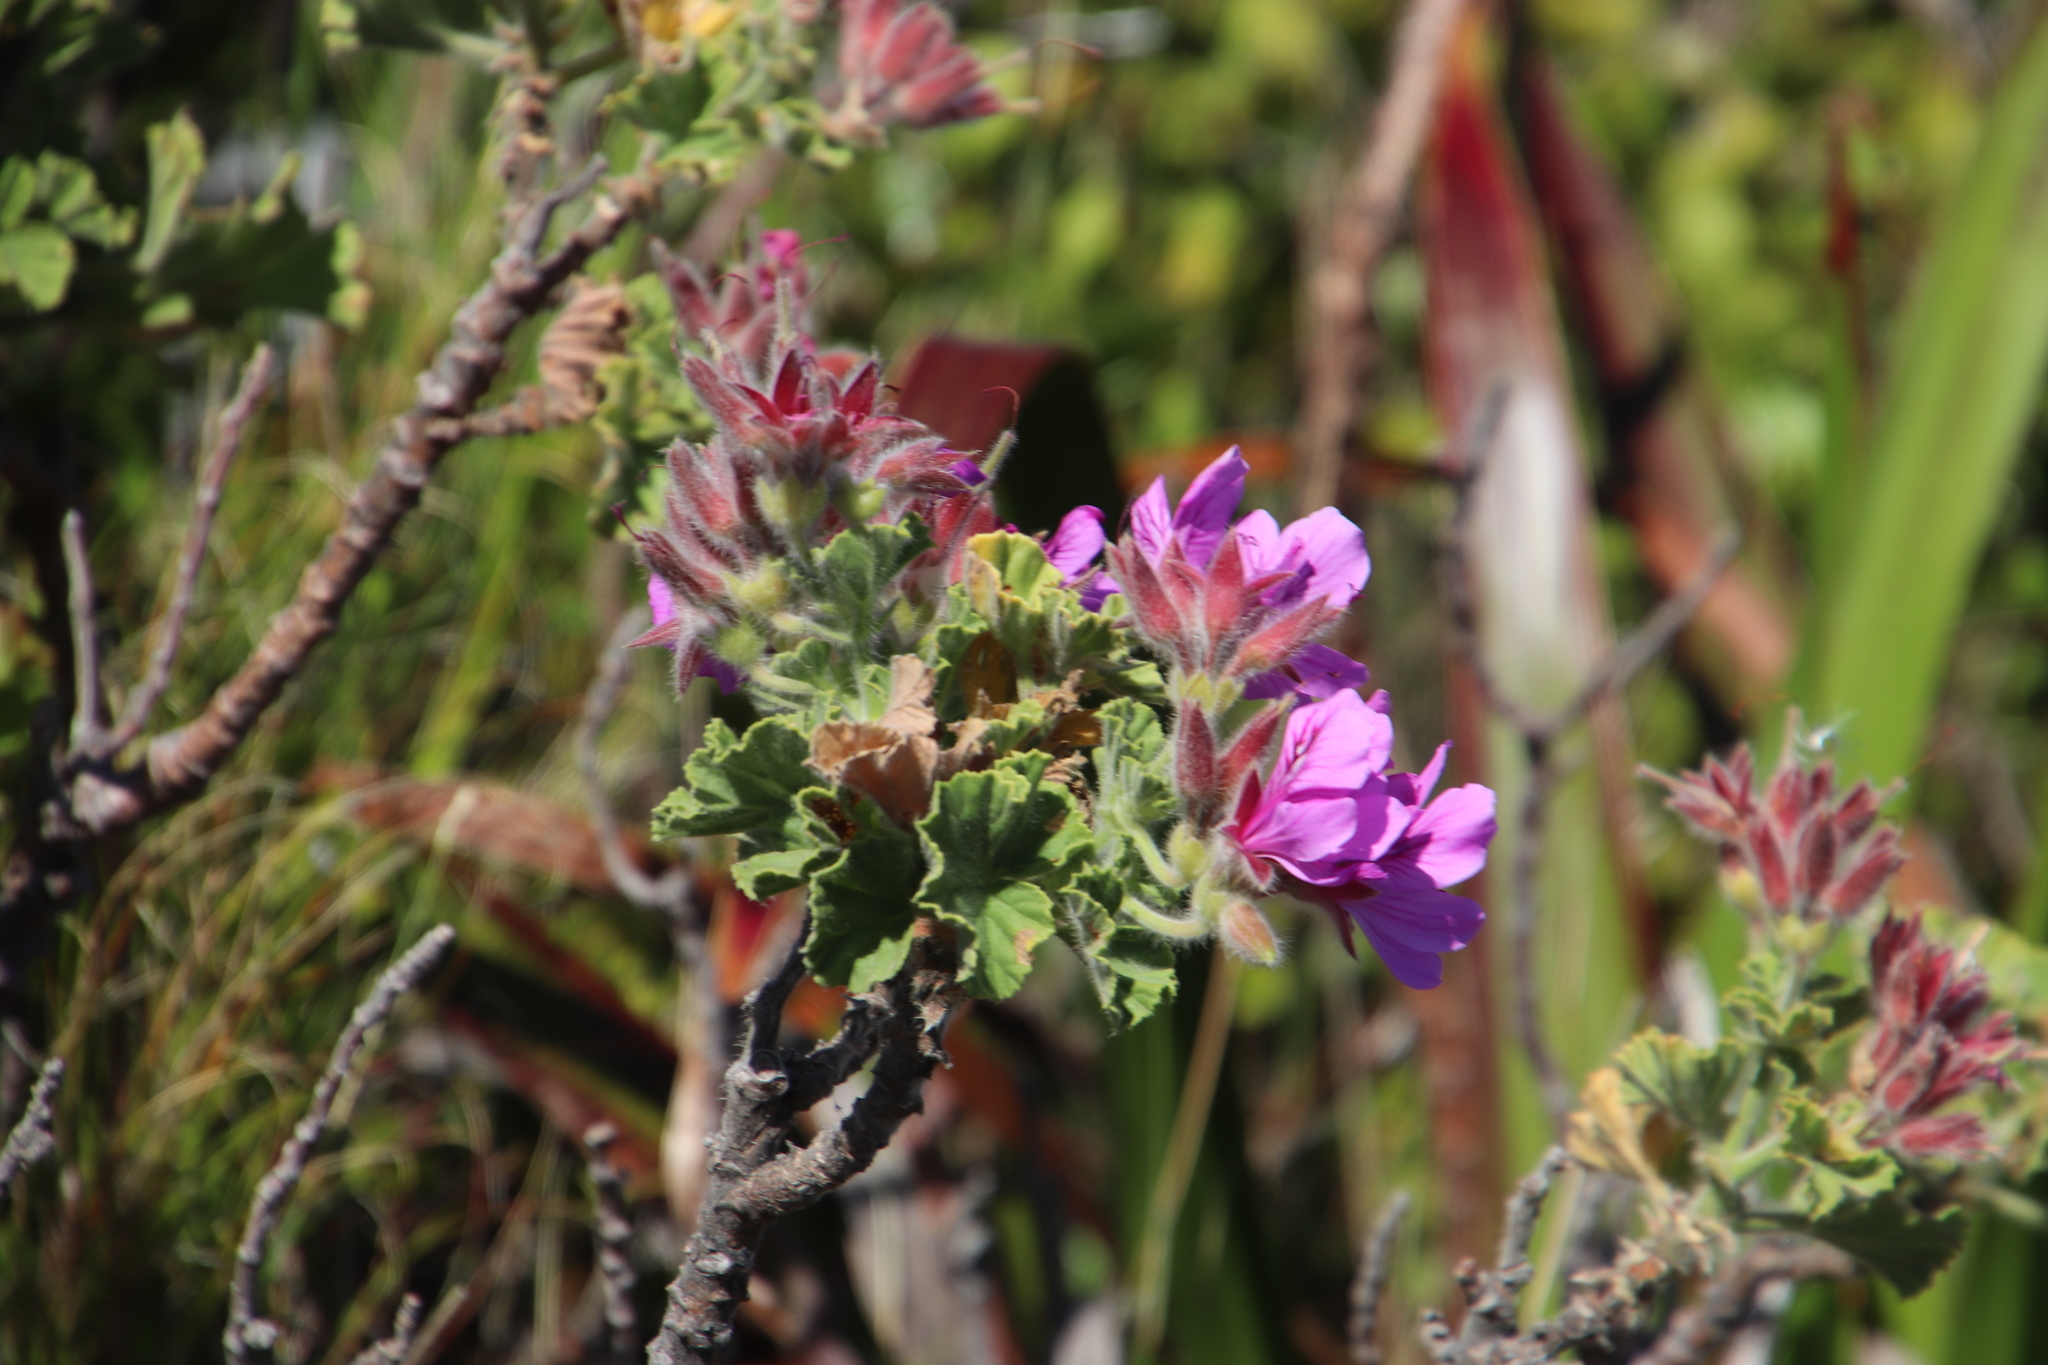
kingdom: Plantae
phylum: Tracheophyta
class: Magnoliopsida
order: Geraniales
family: Geraniaceae
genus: Pelargonium
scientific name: Pelargonium cucullatum
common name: Tree pelargonium
